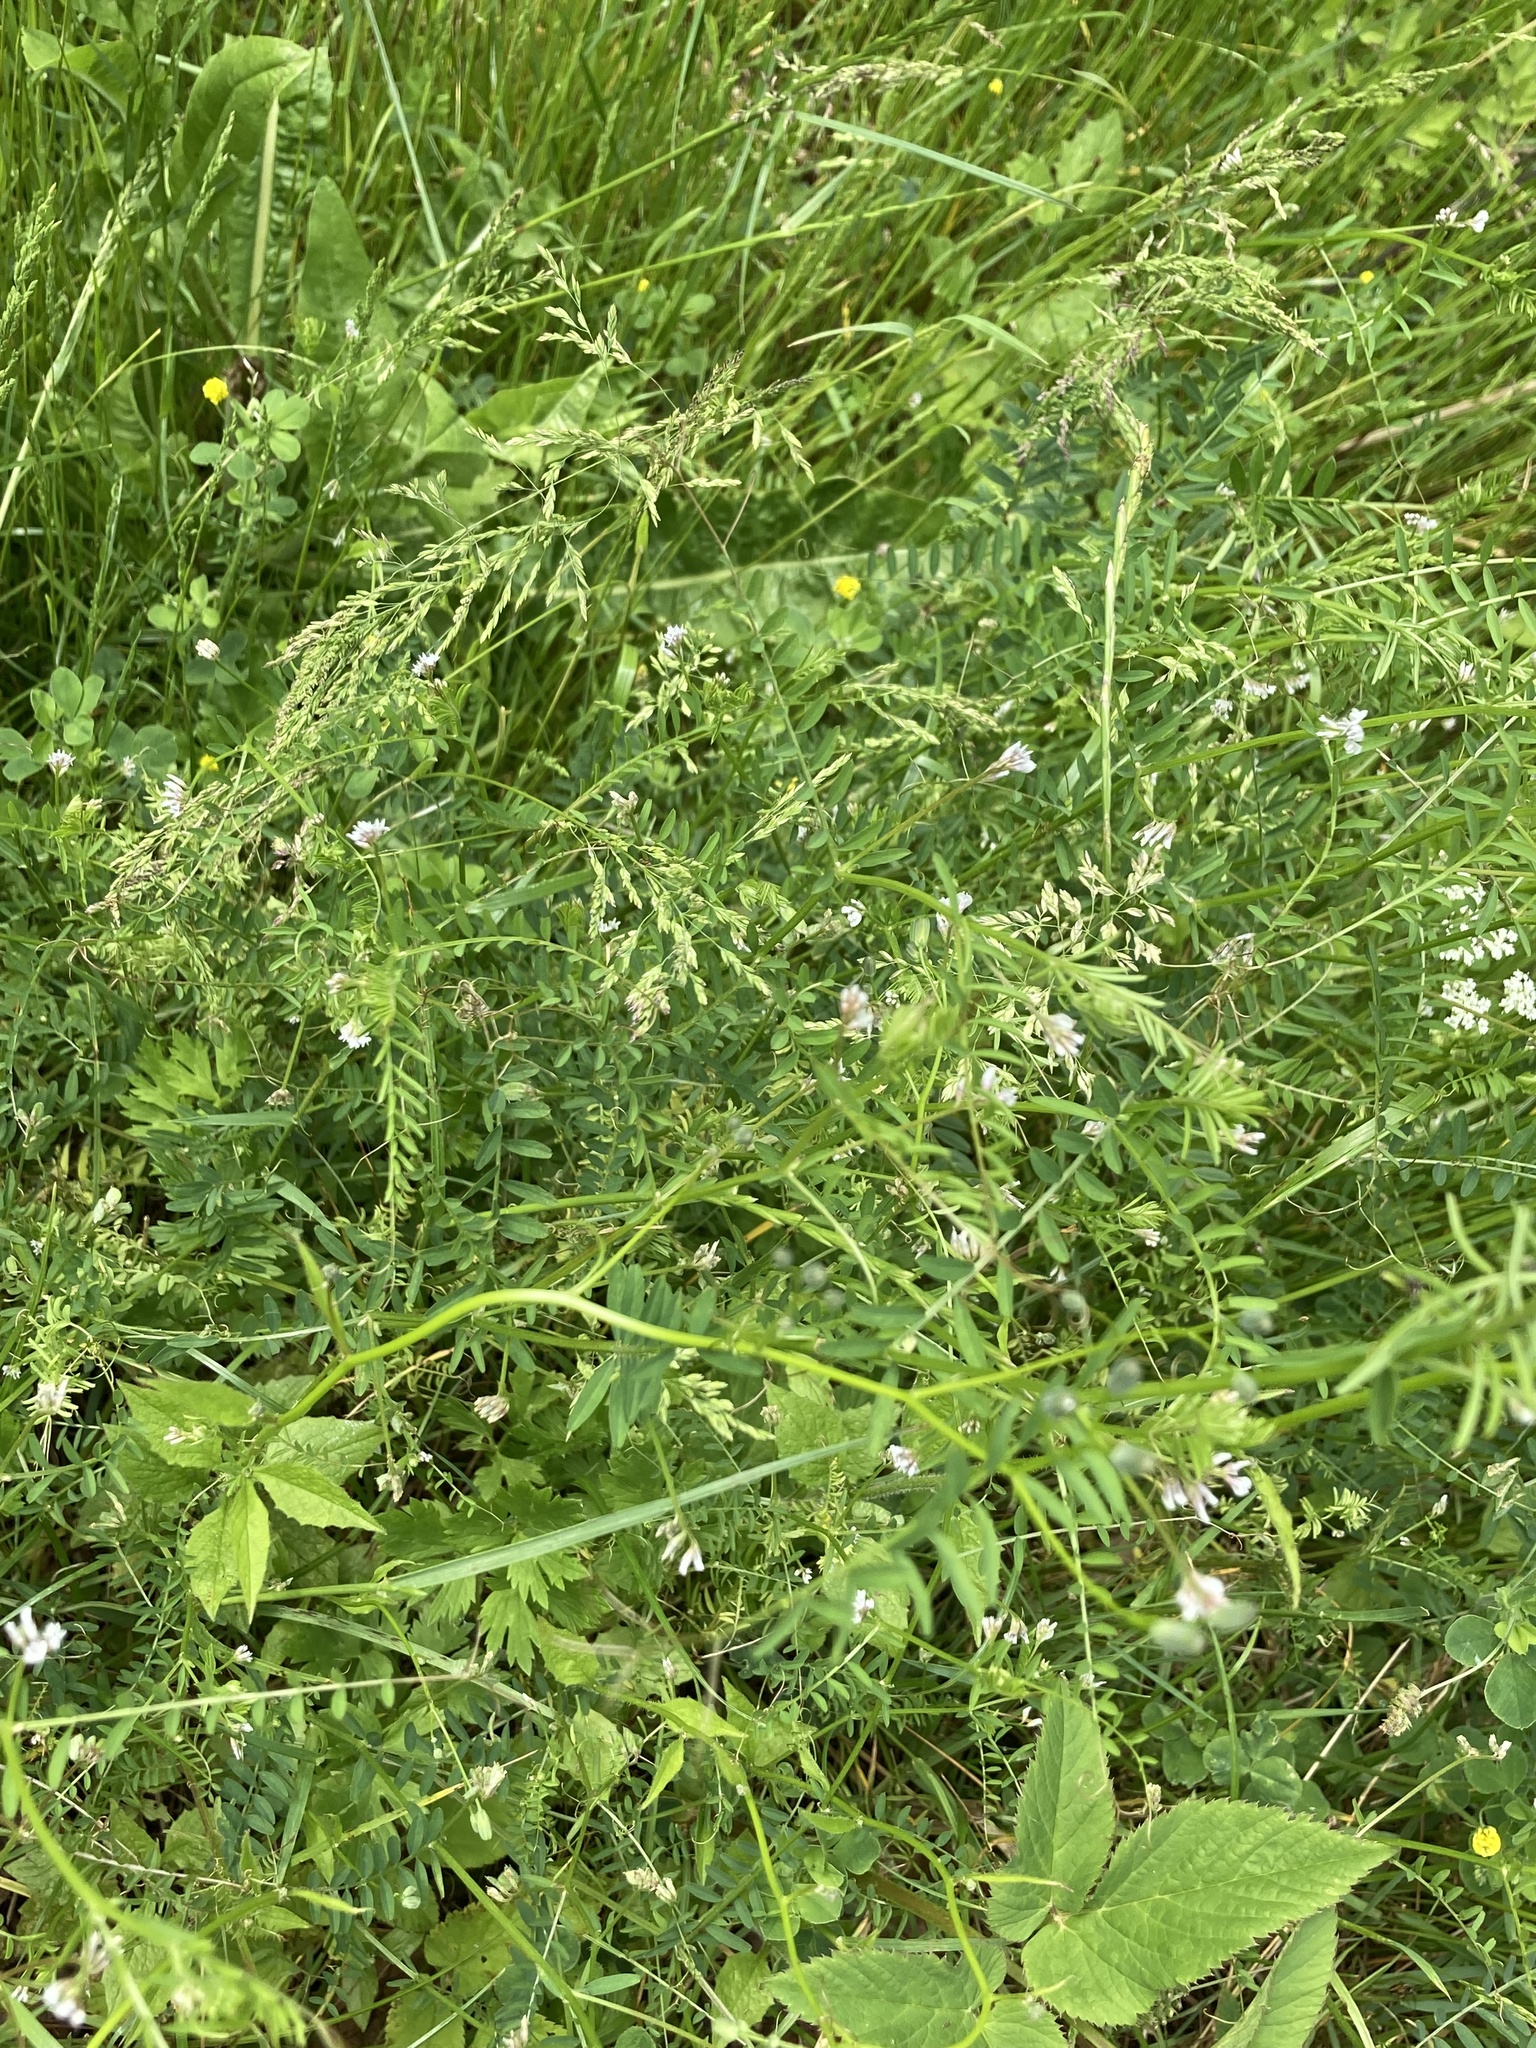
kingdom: Plantae
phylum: Tracheophyta
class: Magnoliopsida
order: Fabales
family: Fabaceae
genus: Vicia
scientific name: Vicia hirsuta
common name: Tiny vetch
